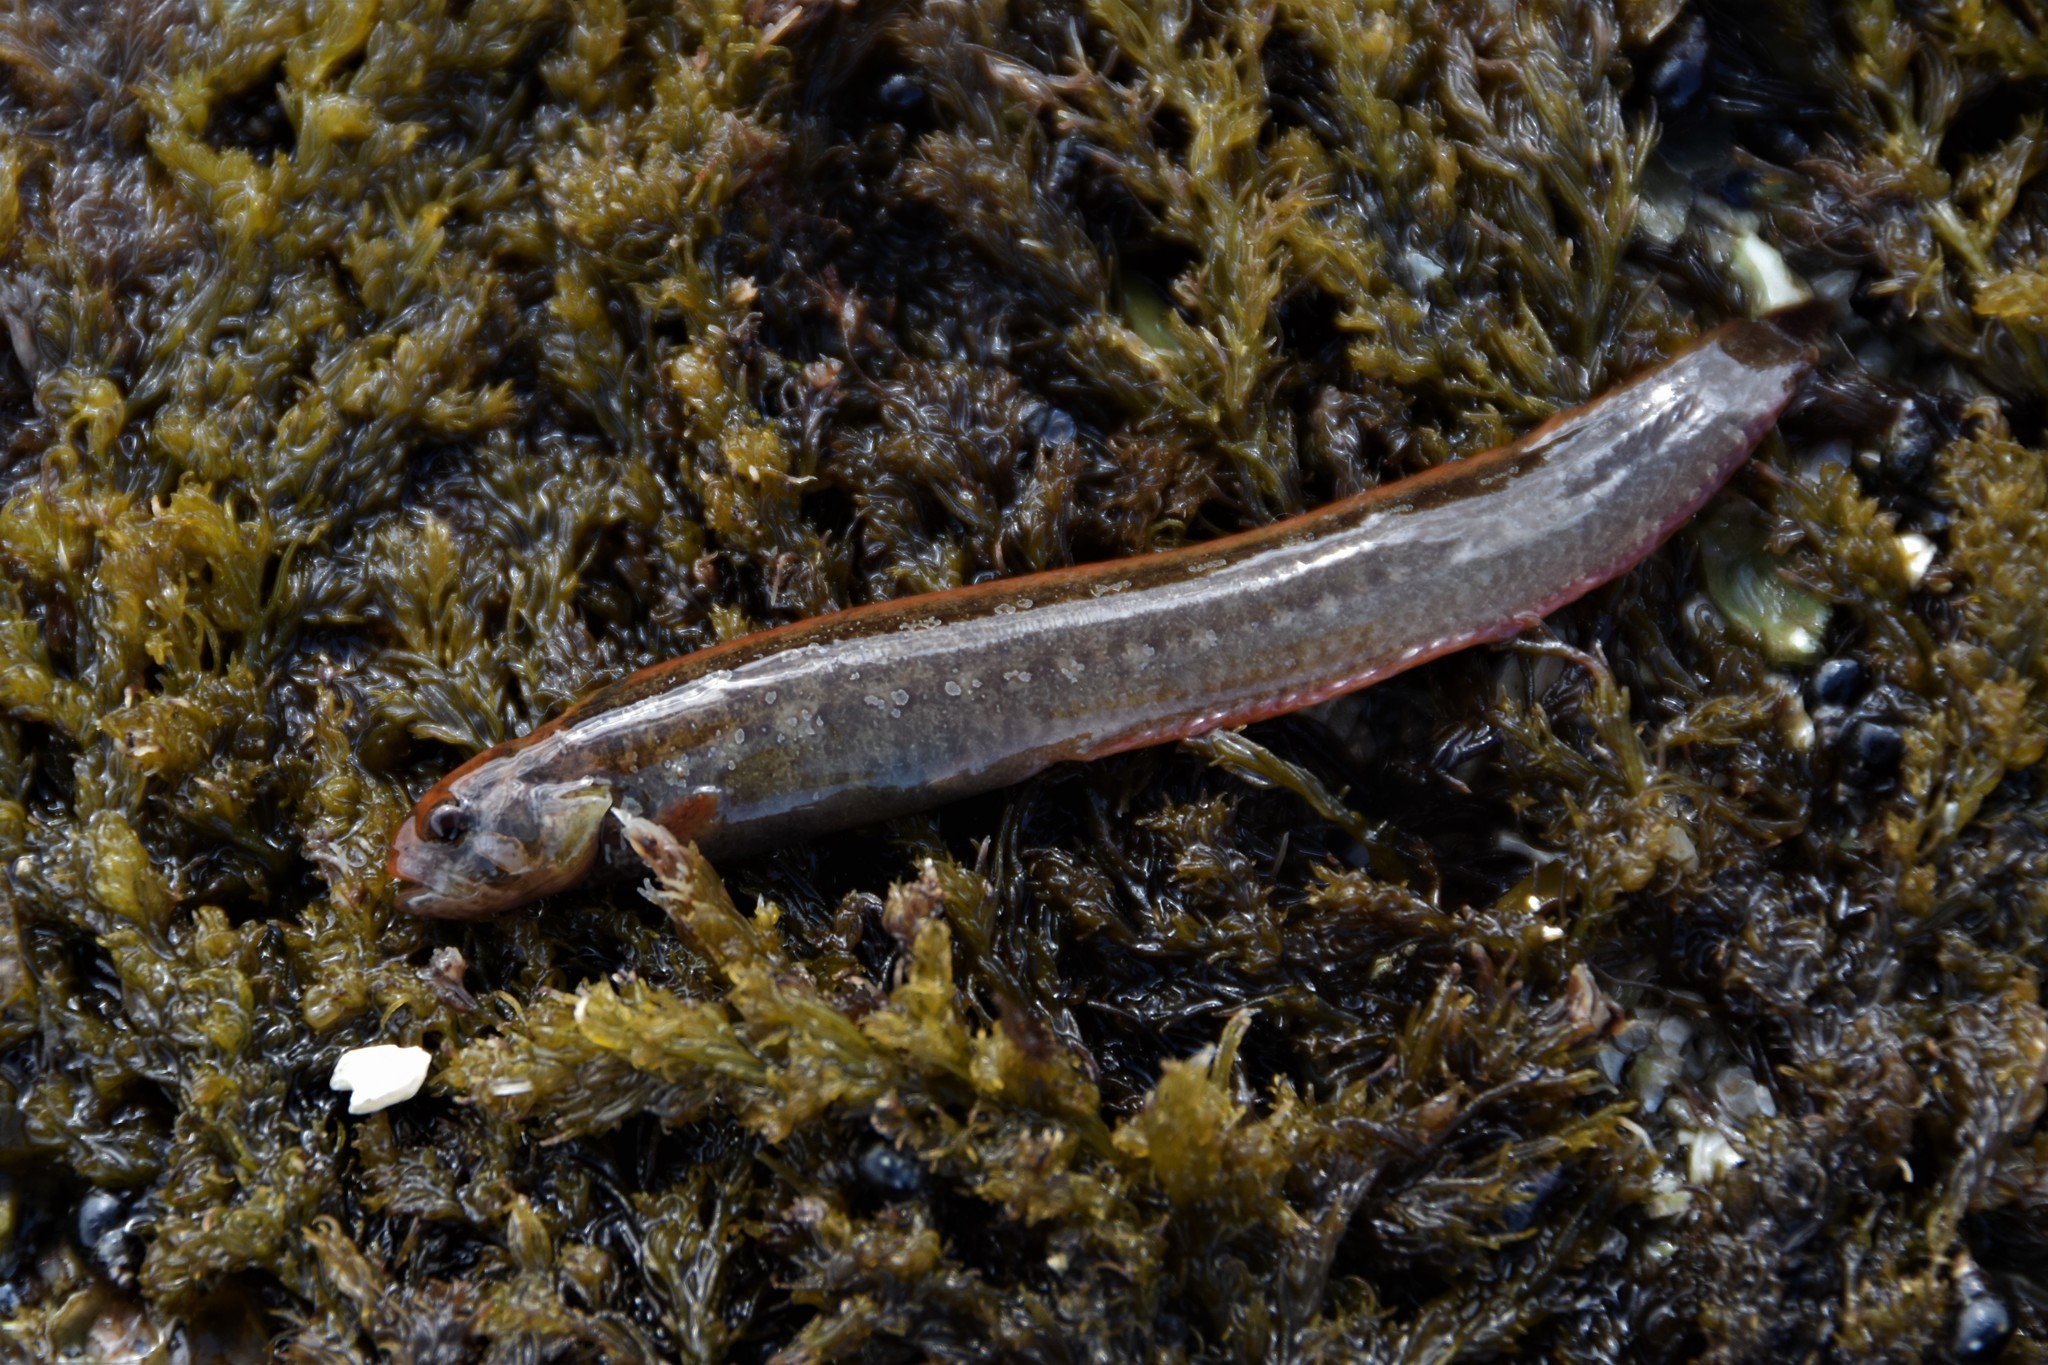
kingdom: Animalia
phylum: Chordata
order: Perciformes
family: Stichaeidae
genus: Anoplarchus
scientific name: Anoplarchus purpurescens
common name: High cockscomb
